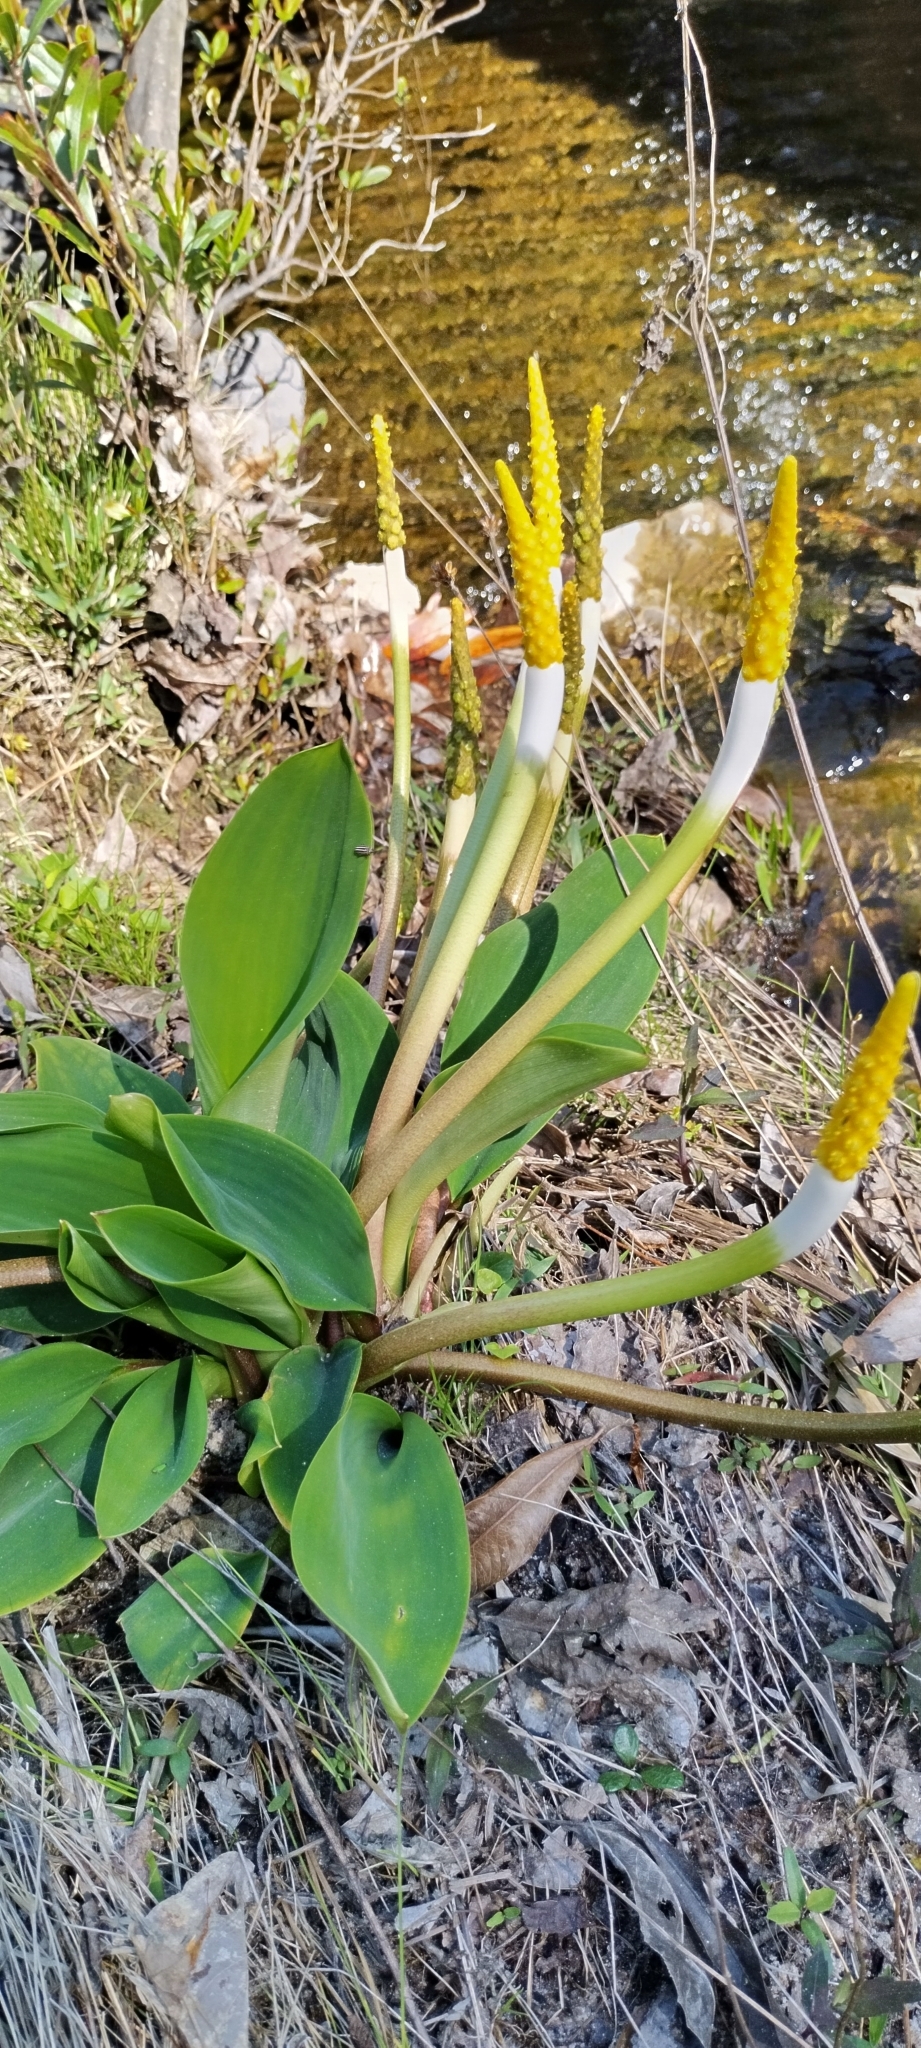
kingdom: Plantae
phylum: Tracheophyta
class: Liliopsida
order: Alismatales
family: Araceae
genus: Orontium
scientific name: Orontium aquaticum
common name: Golden-club
